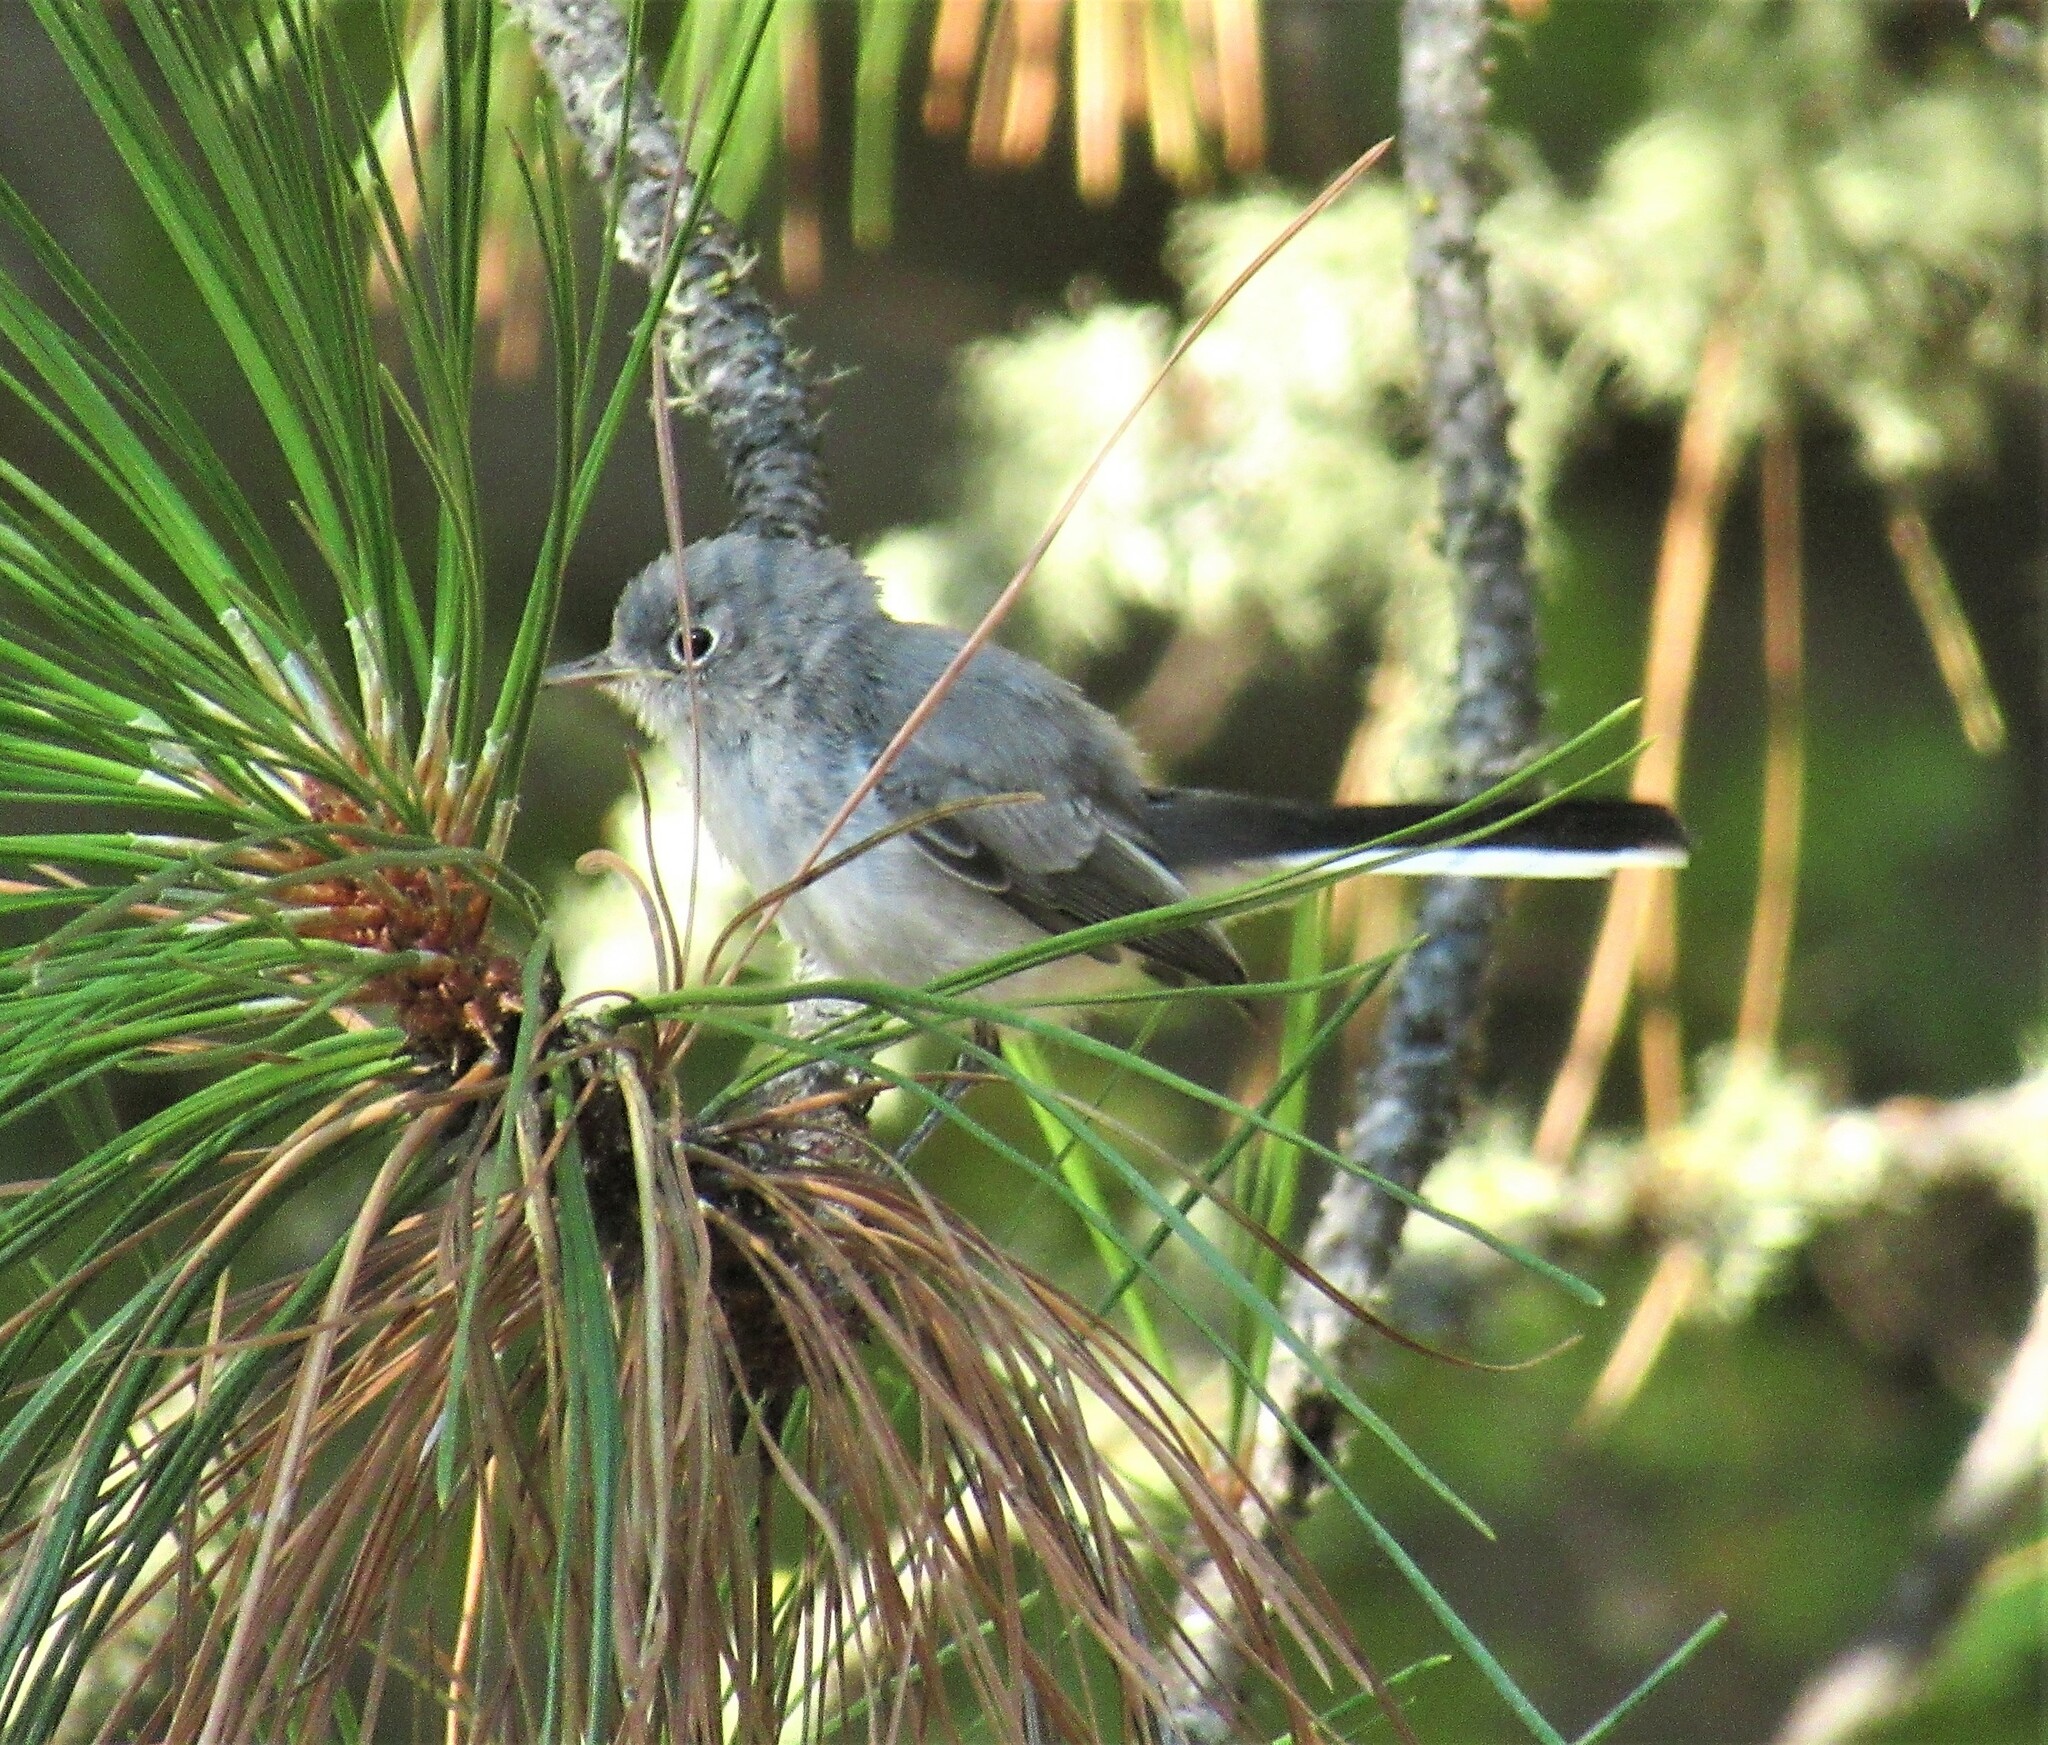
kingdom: Animalia
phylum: Chordata
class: Aves
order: Passeriformes
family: Polioptilidae
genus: Polioptila
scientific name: Polioptila caerulea
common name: Blue-gray gnatcatcher
